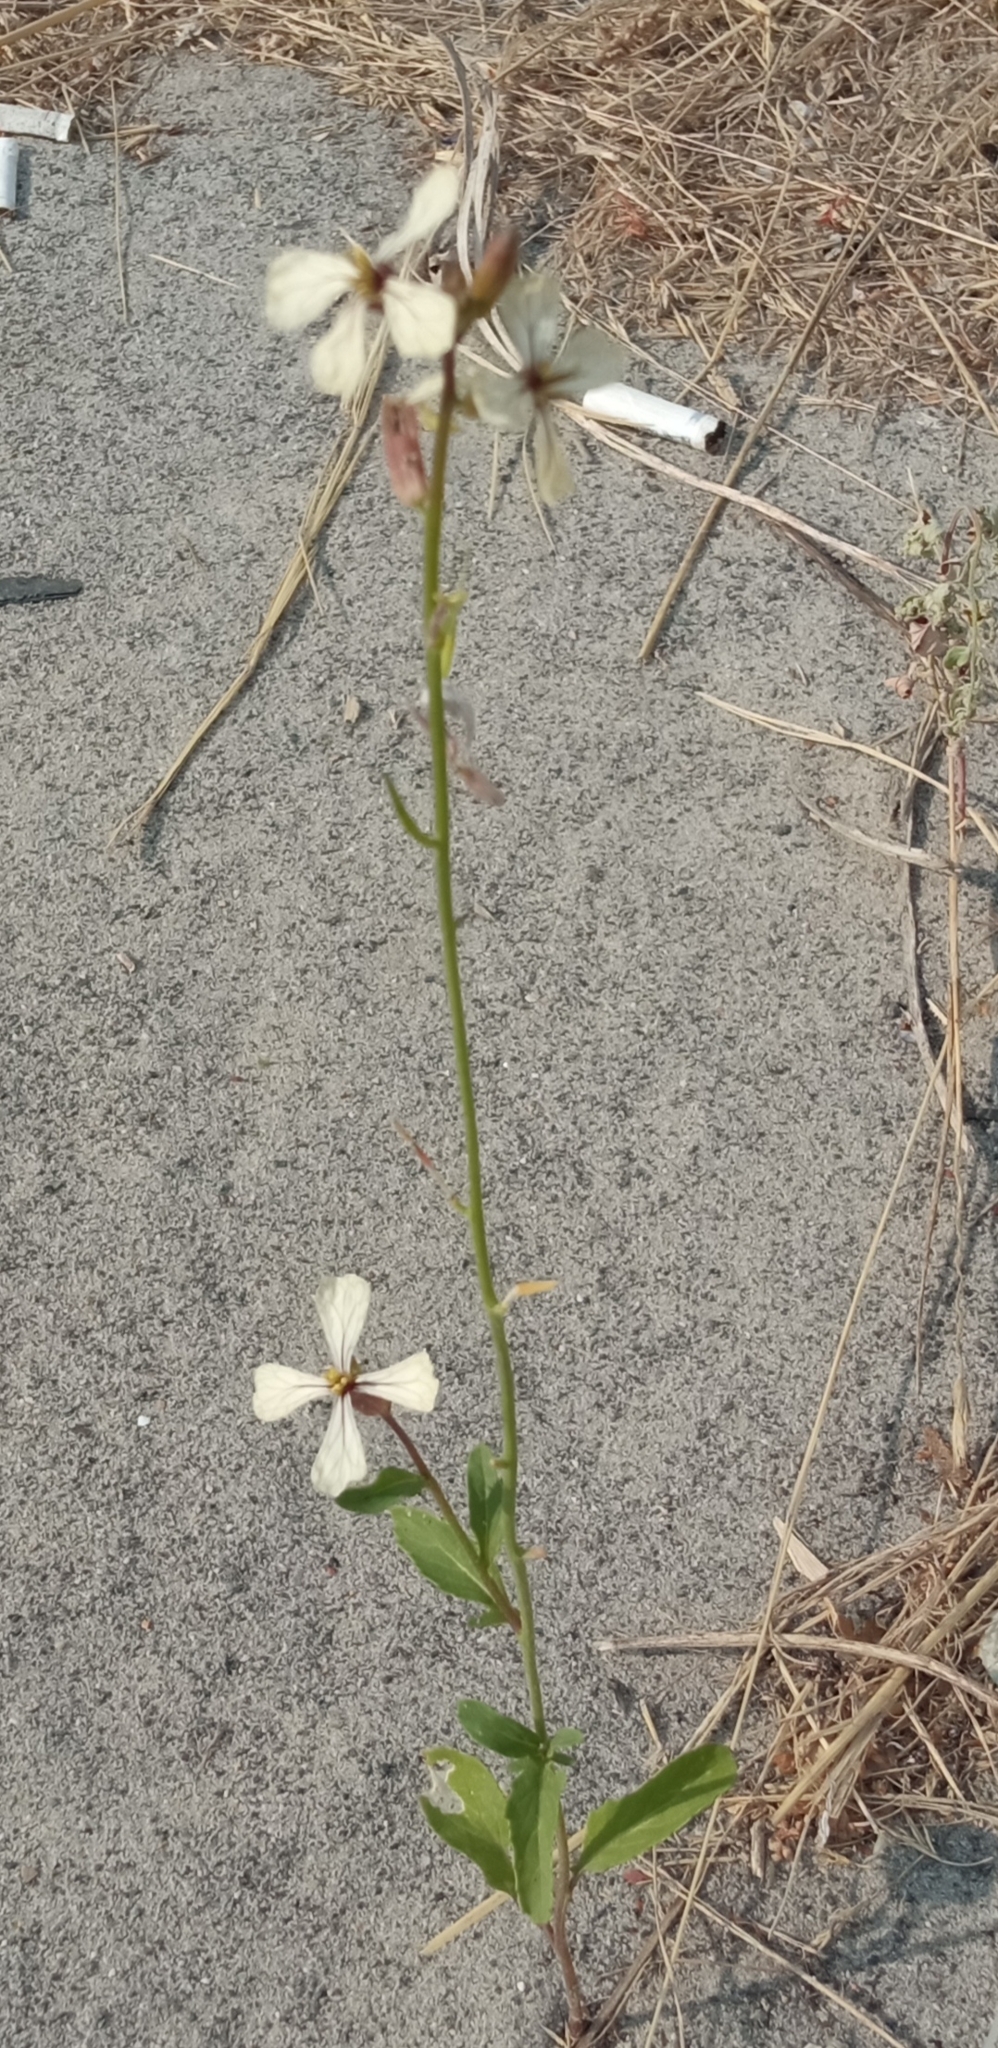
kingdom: Plantae
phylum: Tracheophyta
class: Magnoliopsida
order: Brassicales
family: Brassicaceae
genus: Eruca
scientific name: Eruca vesicaria
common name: Garden rocket
